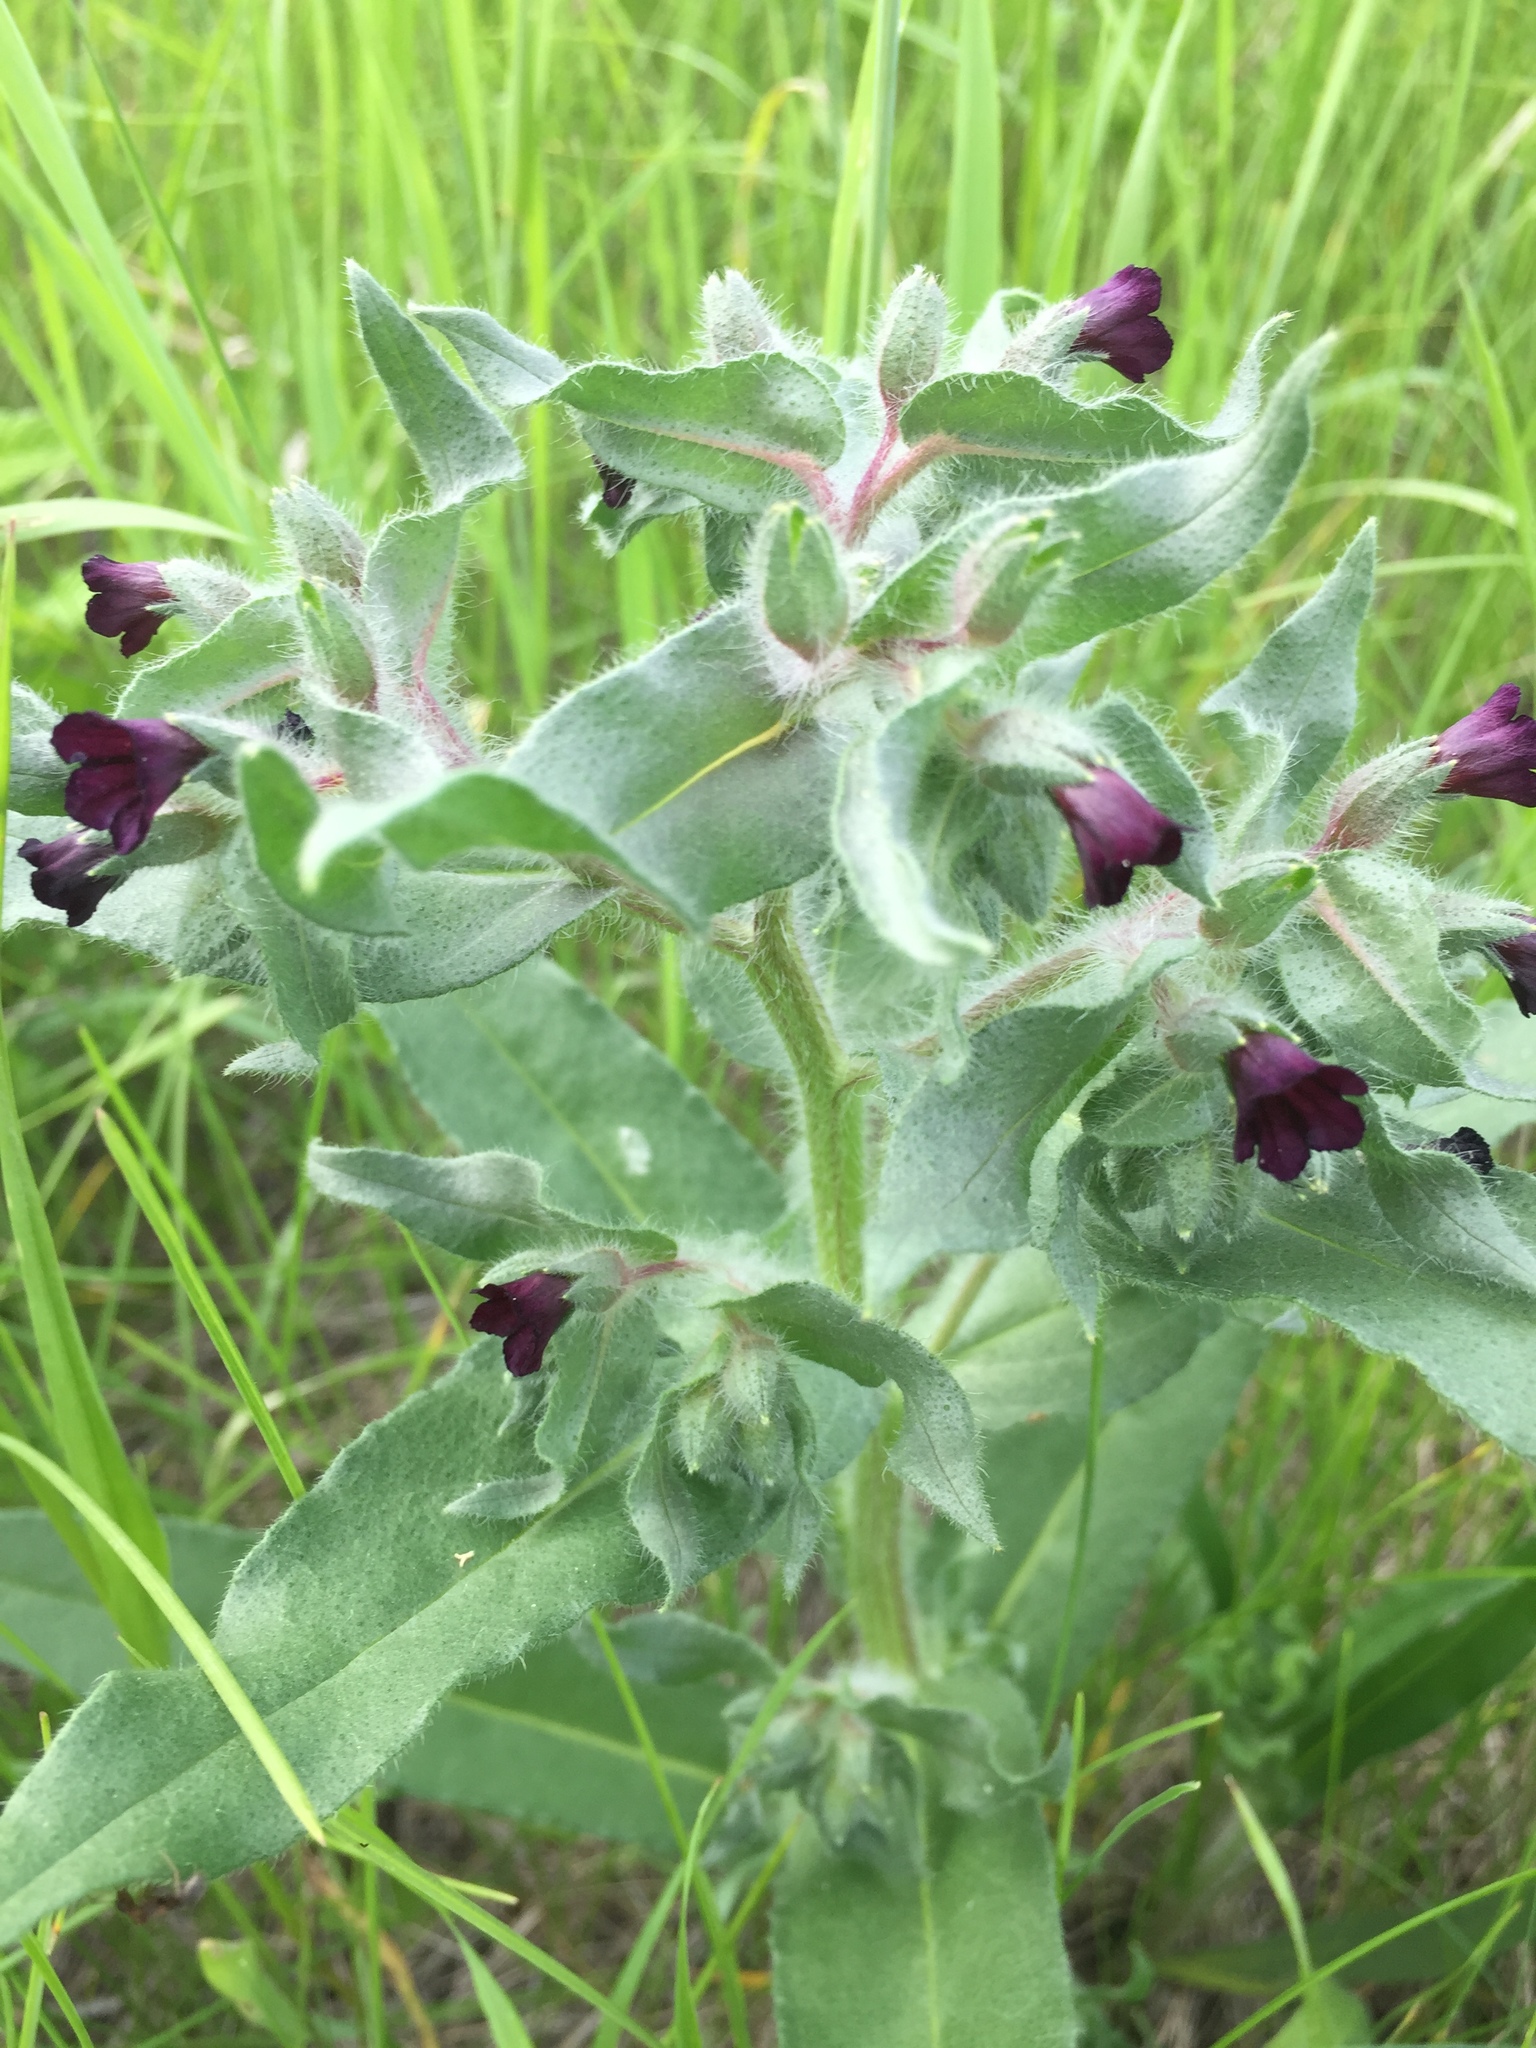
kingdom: Plantae
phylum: Tracheophyta
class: Magnoliopsida
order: Boraginales
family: Boraginaceae
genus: Nonea
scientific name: Nonea pulla
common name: Brown nonea
